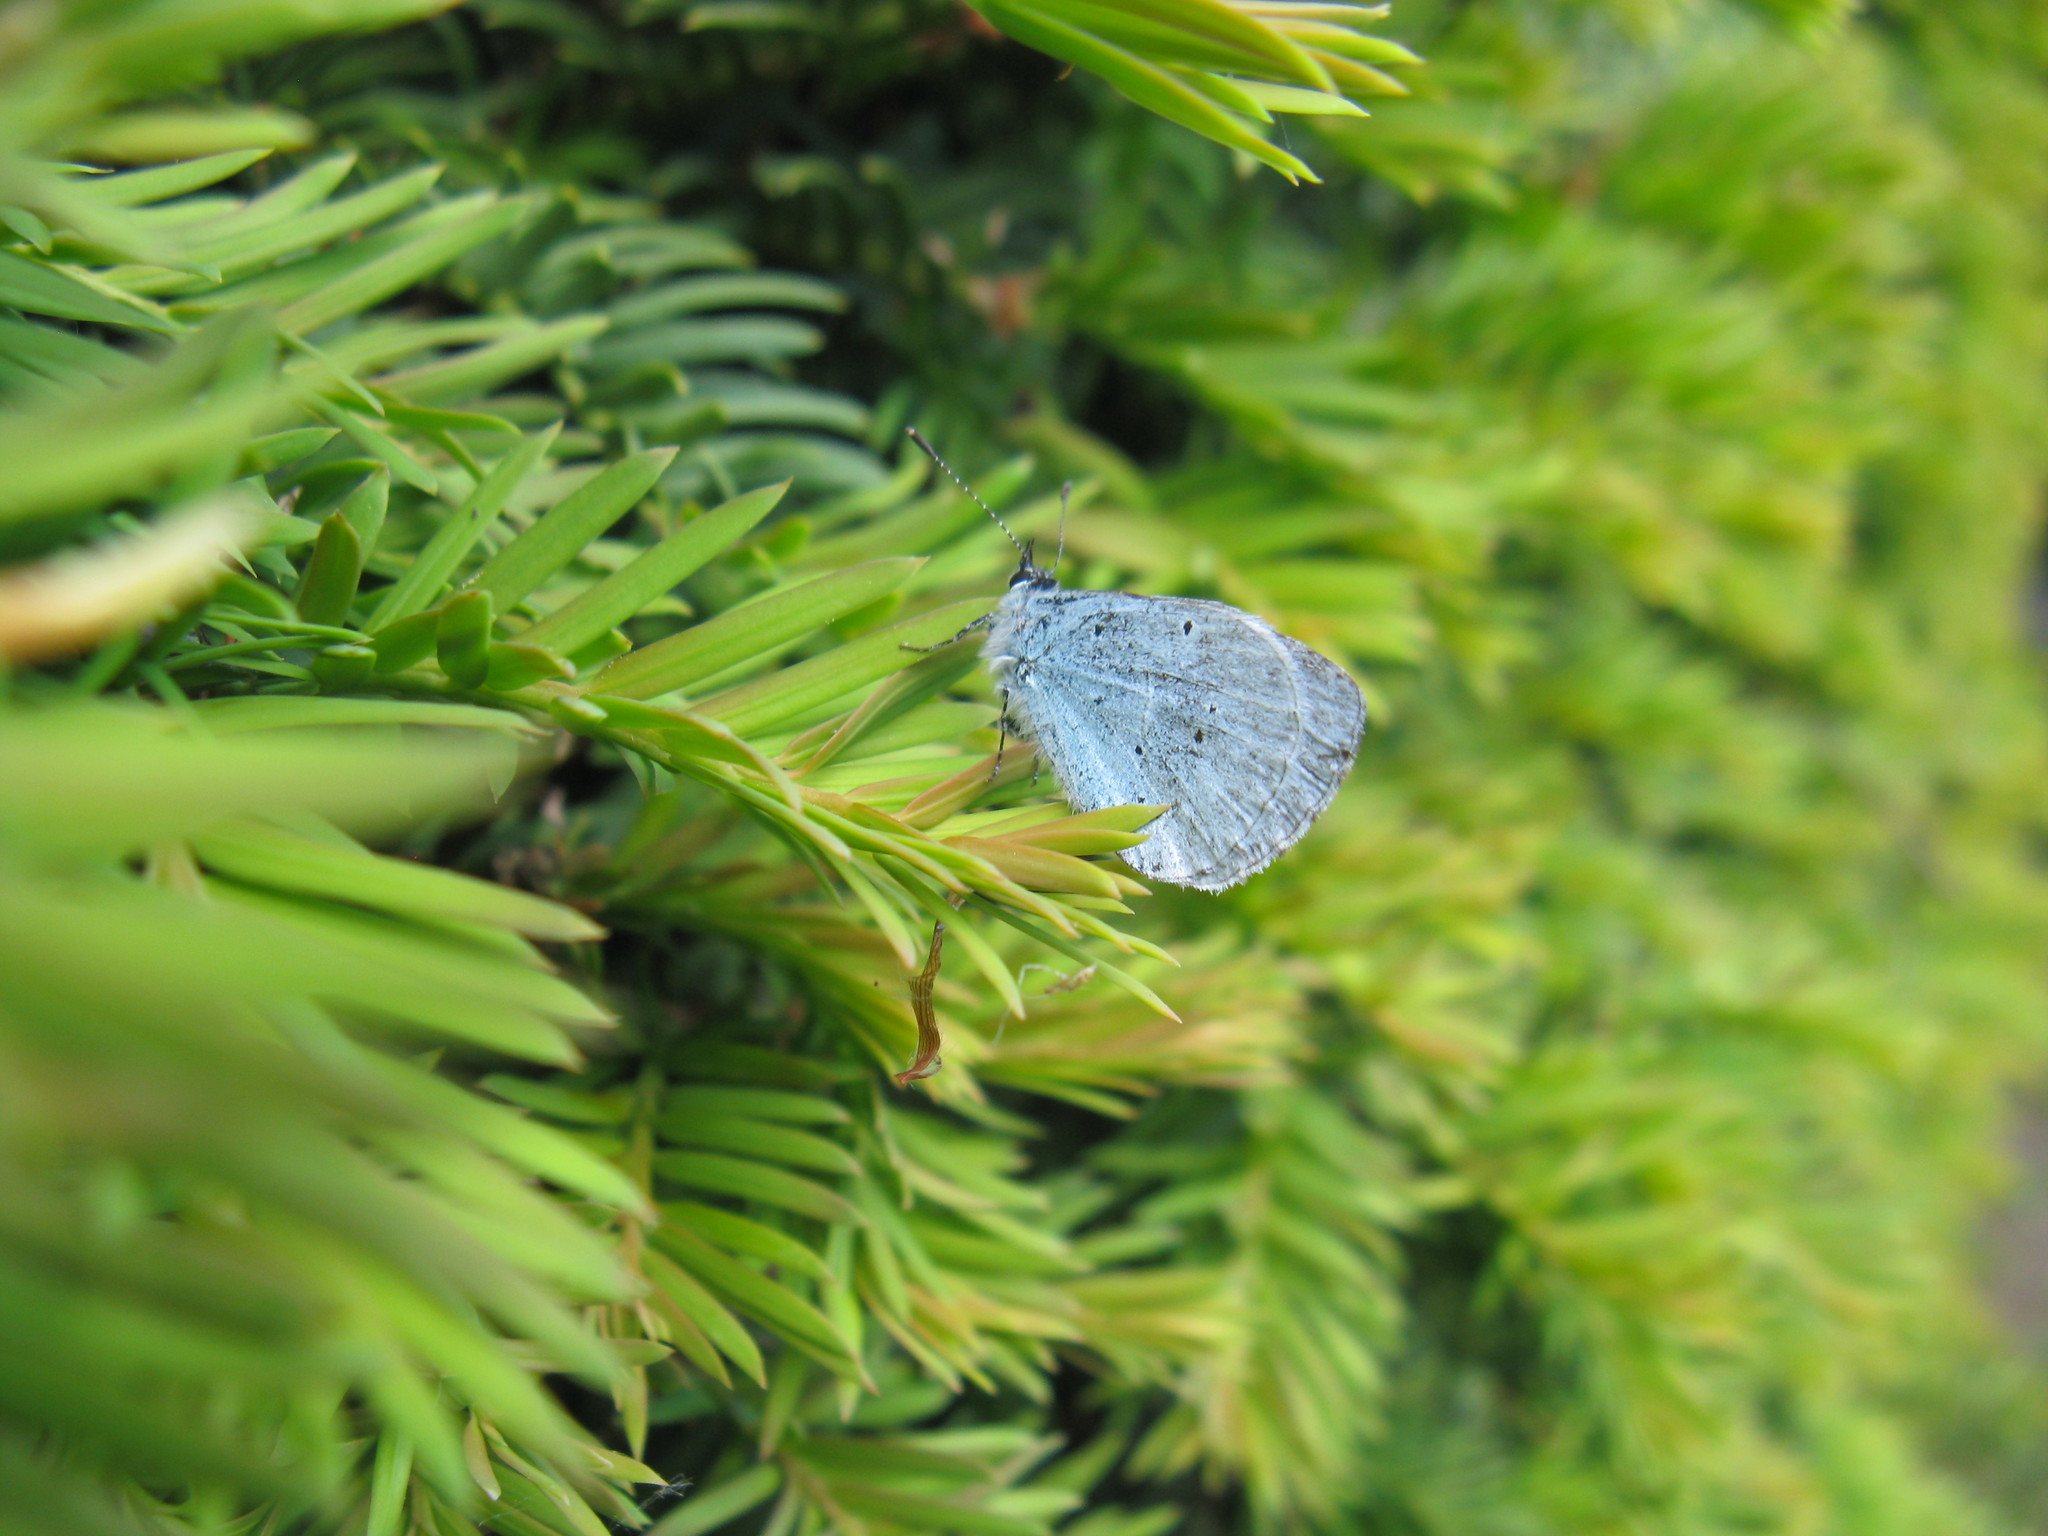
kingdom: Animalia
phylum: Arthropoda
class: Insecta
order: Lepidoptera
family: Lycaenidae
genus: Celastrina
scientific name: Celastrina argiolus
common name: Holly blue
